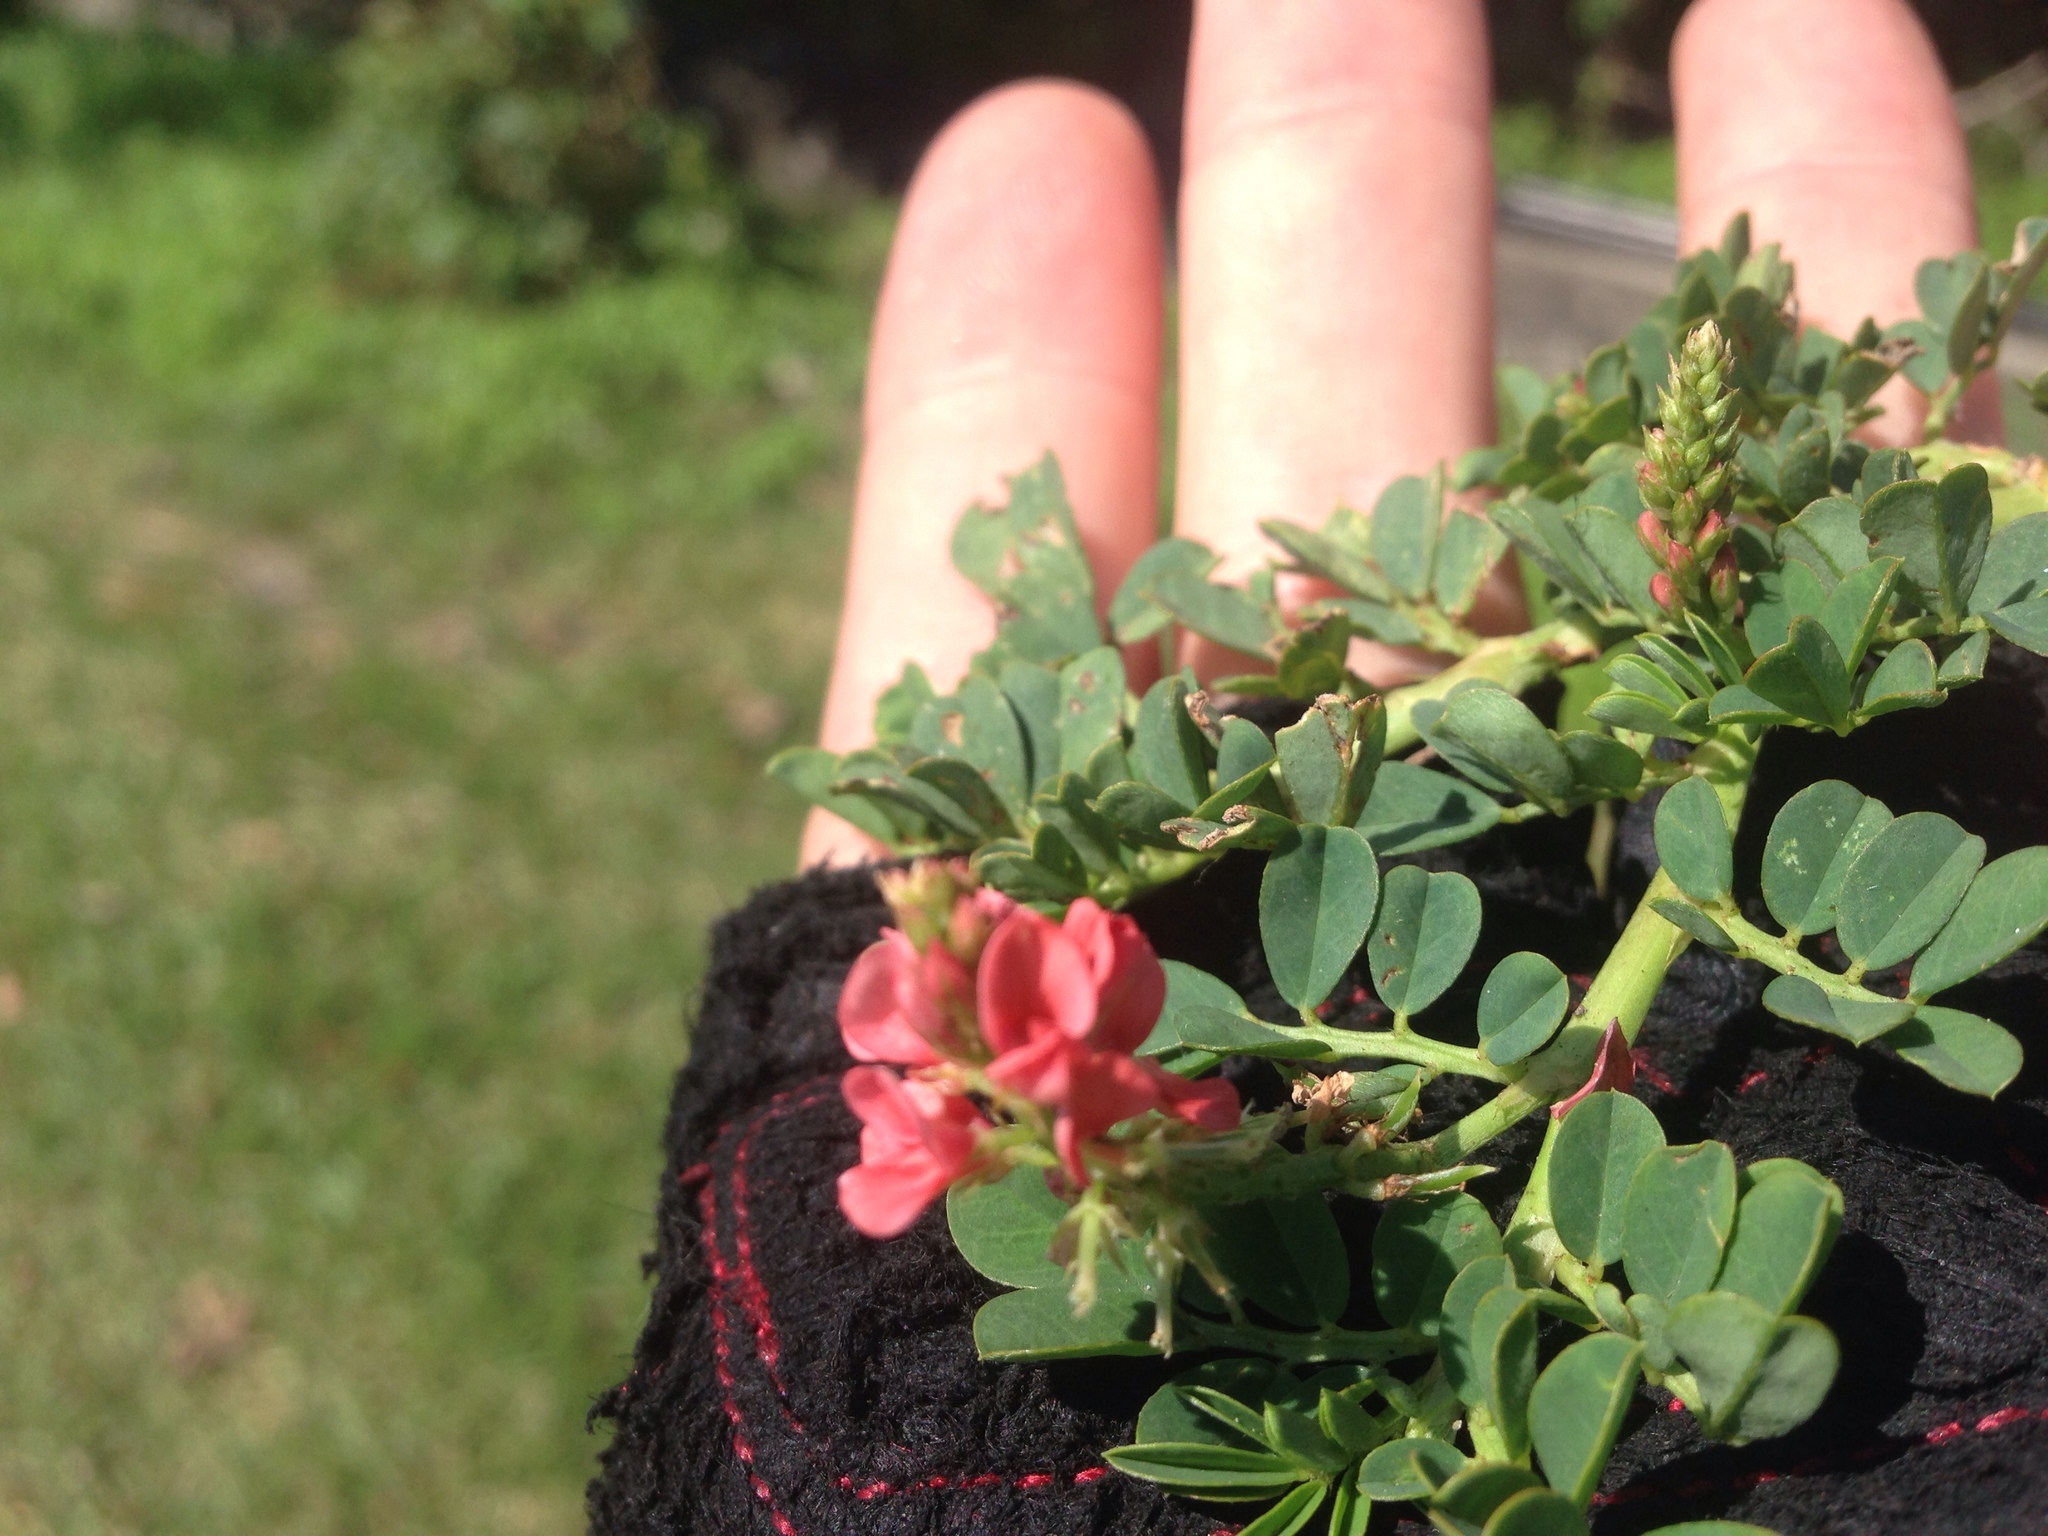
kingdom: Plantae
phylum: Tracheophyta
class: Magnoliopsida
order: Fabales
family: Fabaceae
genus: Indigofera
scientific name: Indigofera spicata
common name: Creeping indigo
